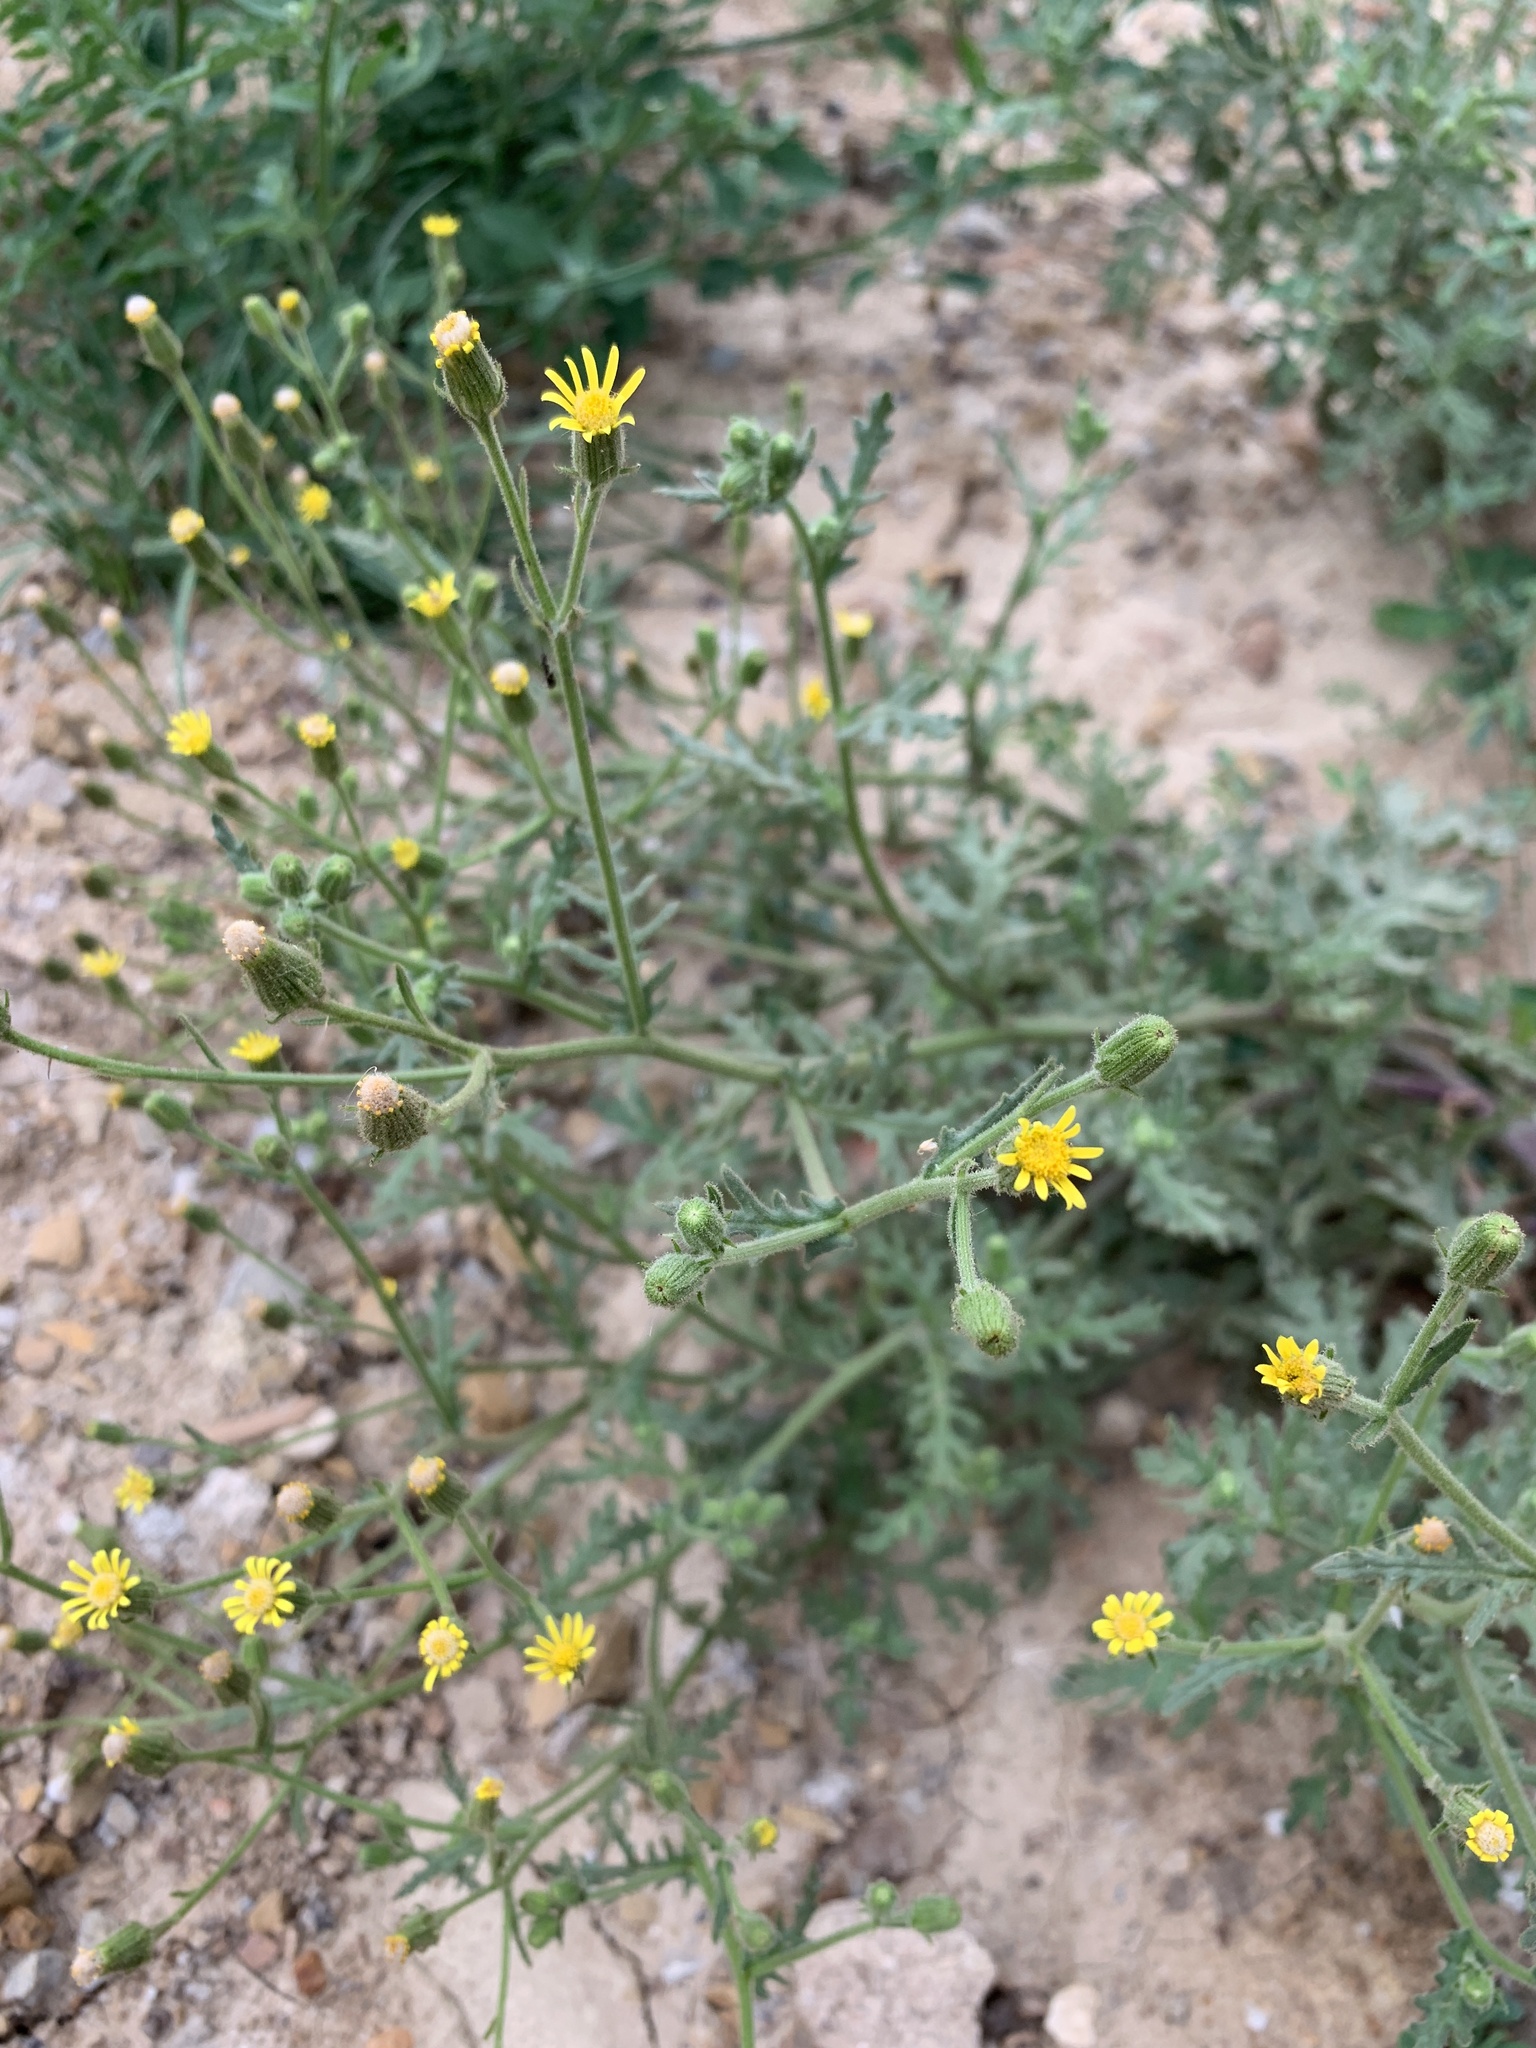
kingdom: Plantae
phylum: Tracheophyta
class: Magnoliopsida
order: Asterales
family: Asteraceae
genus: Senecio
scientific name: Senecio viscosus
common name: Sticky groundsel
